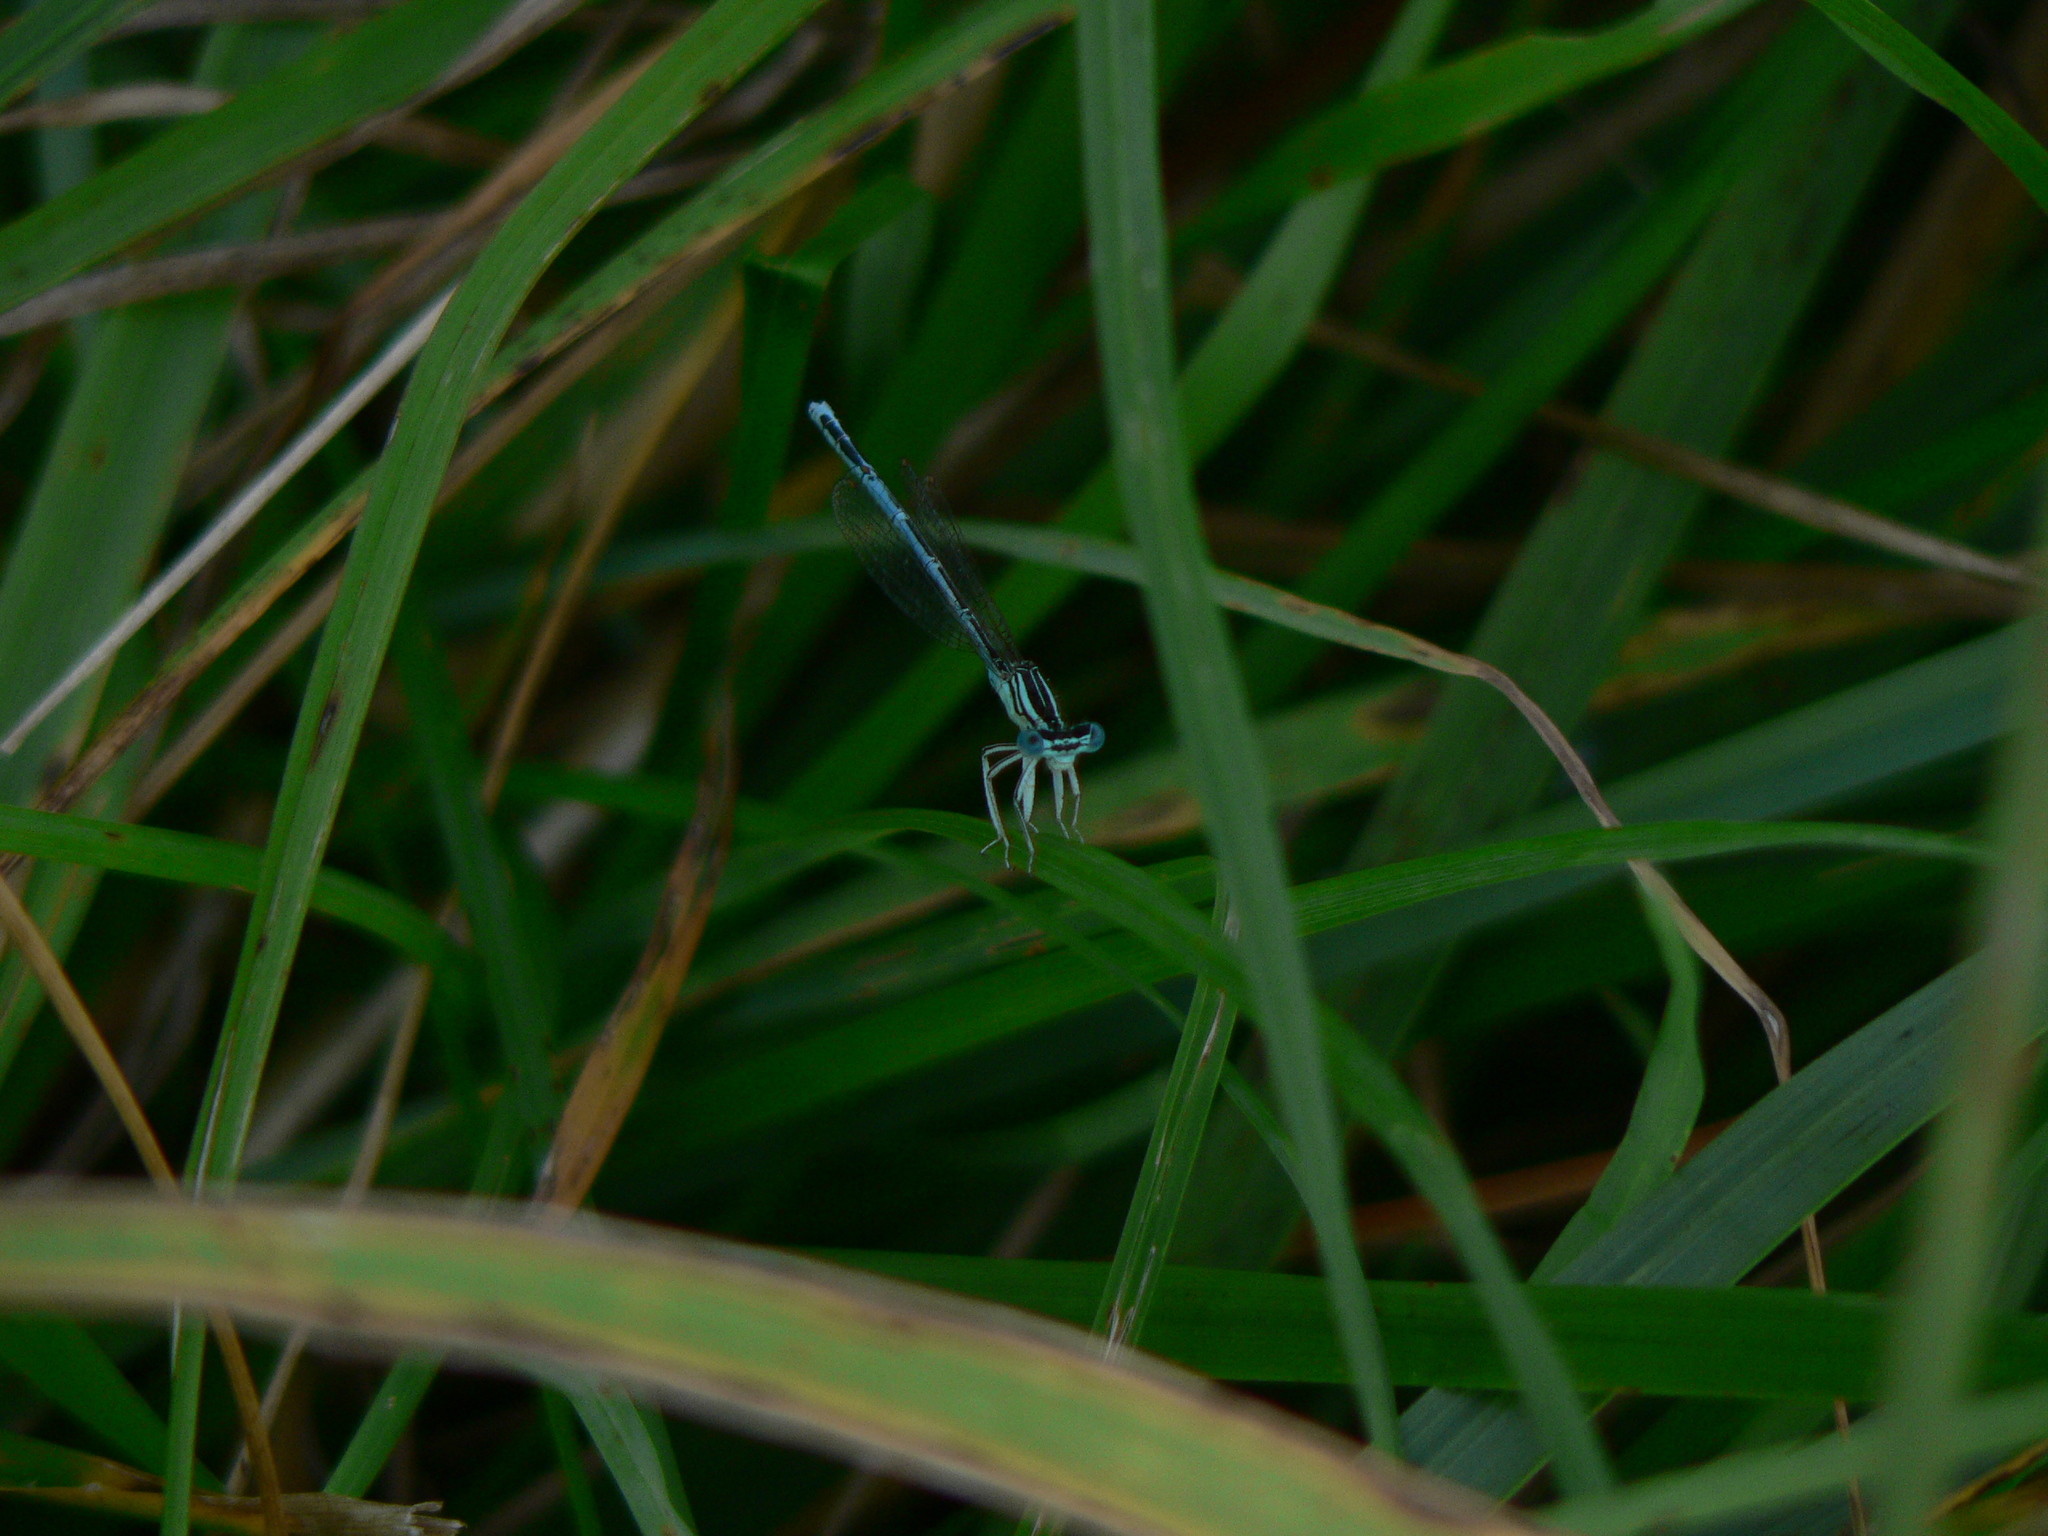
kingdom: Animalia
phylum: Arthropoda
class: Insecta
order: Odonata
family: Platycnemididae
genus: Platycnemis
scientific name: Platycnemis pennipes
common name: White-legged damselfly
